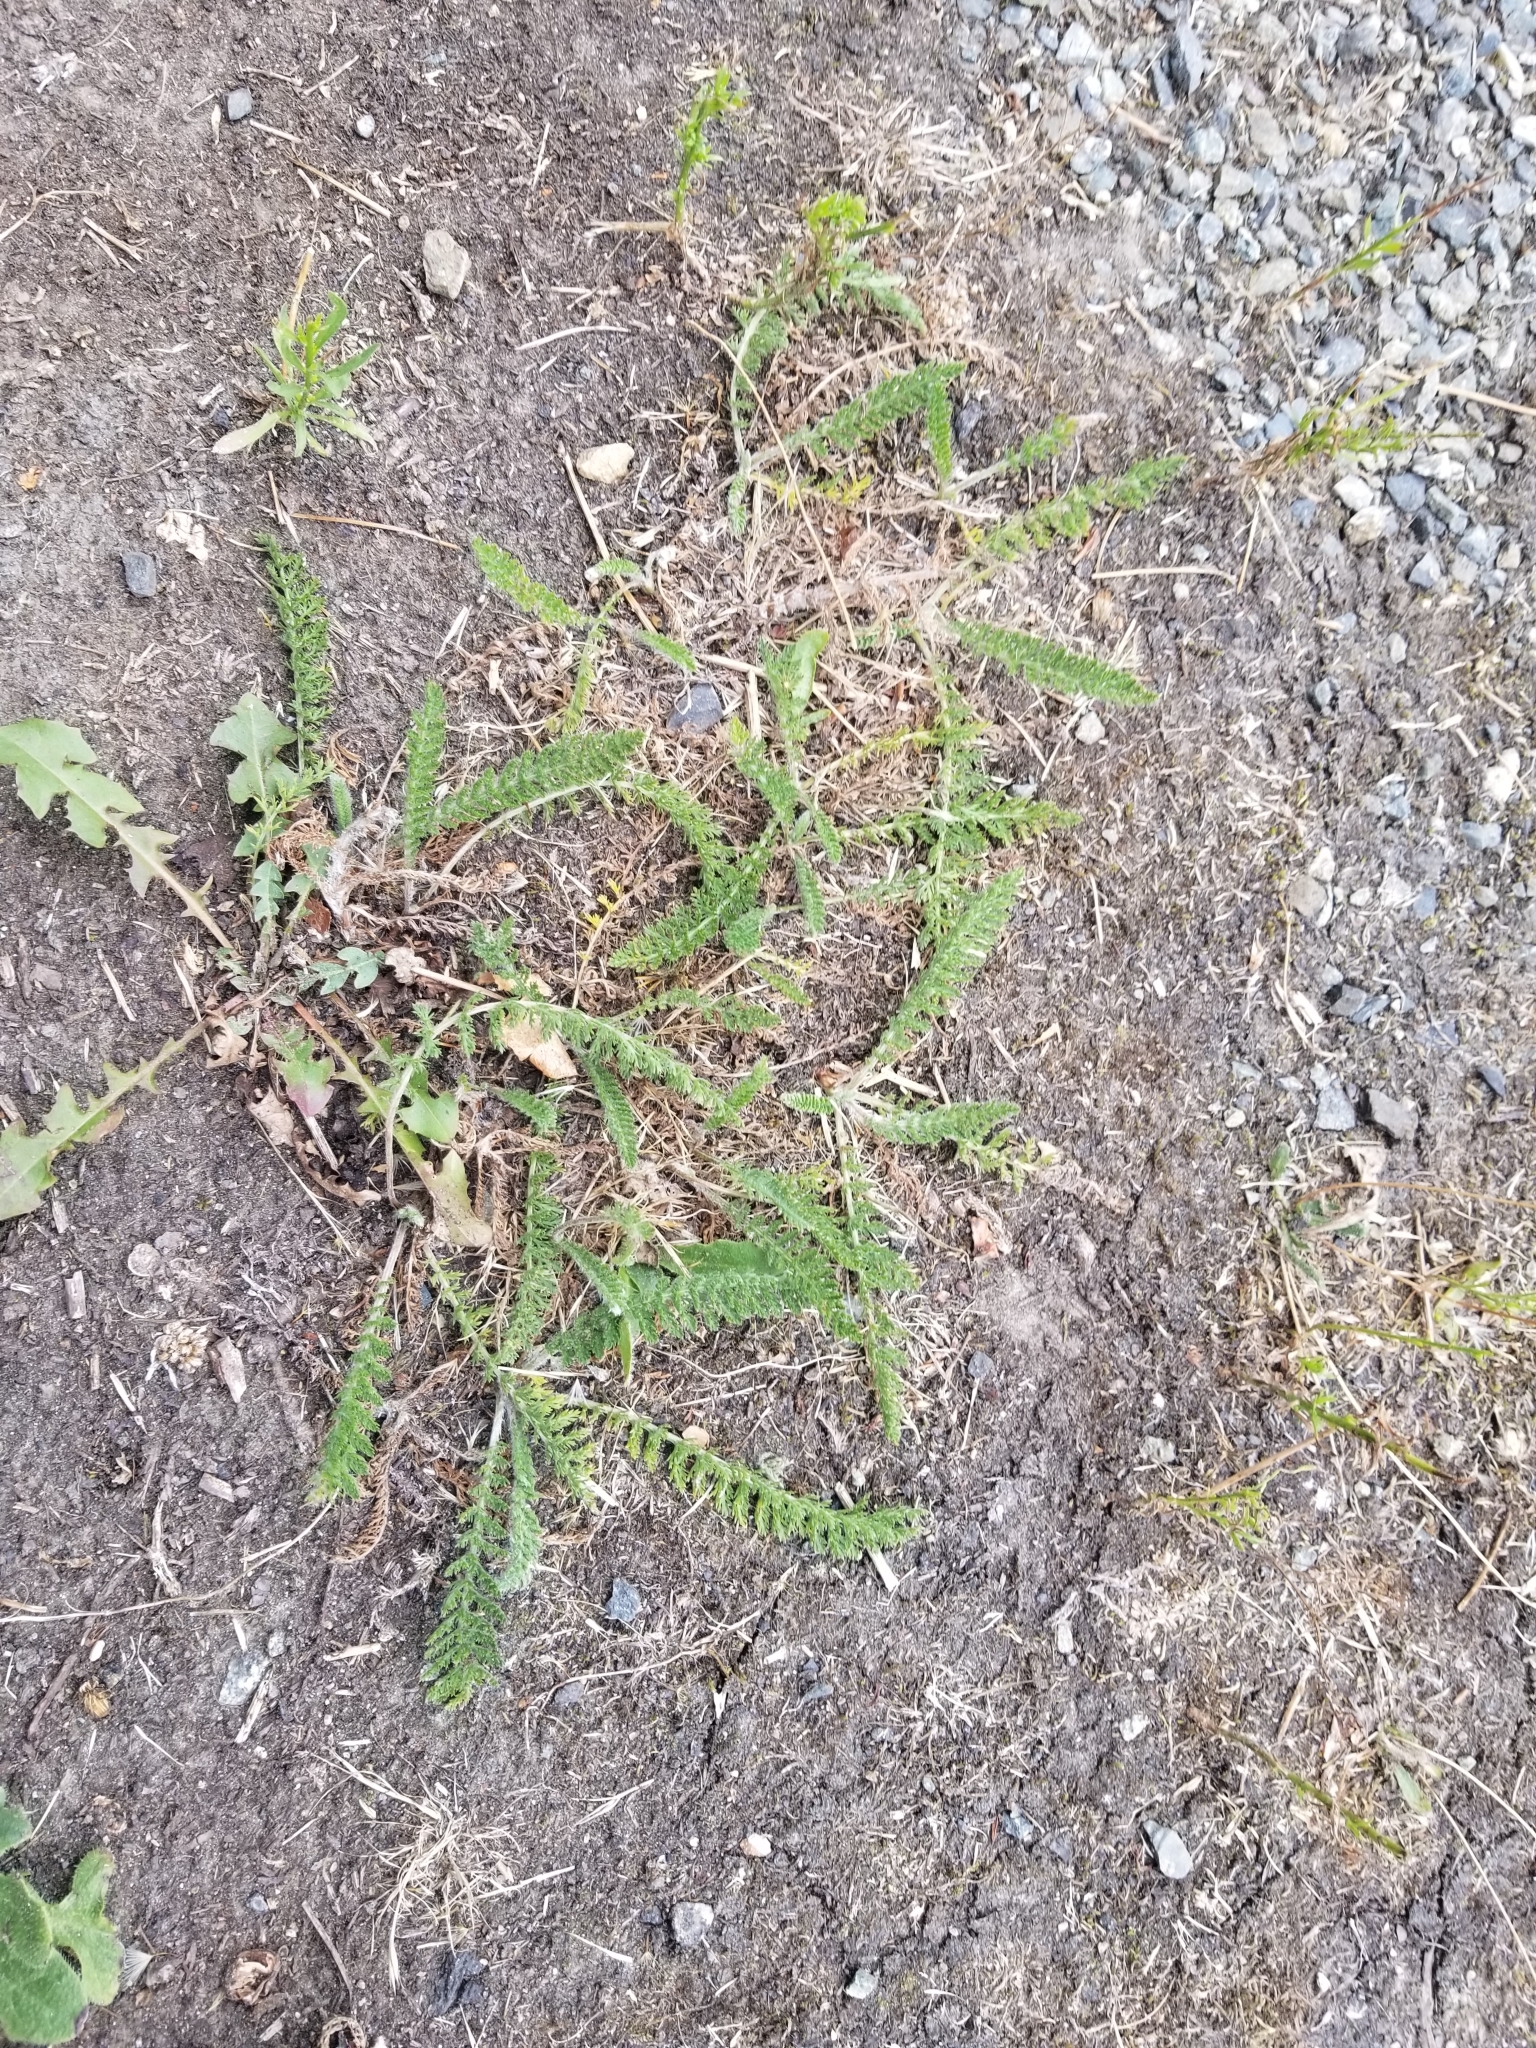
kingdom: Plantae
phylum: Tracheophyta
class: Magnoliopsida
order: Asterales
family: Asteraceae
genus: Achillea
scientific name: Achillea millefolium
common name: Yarrow
